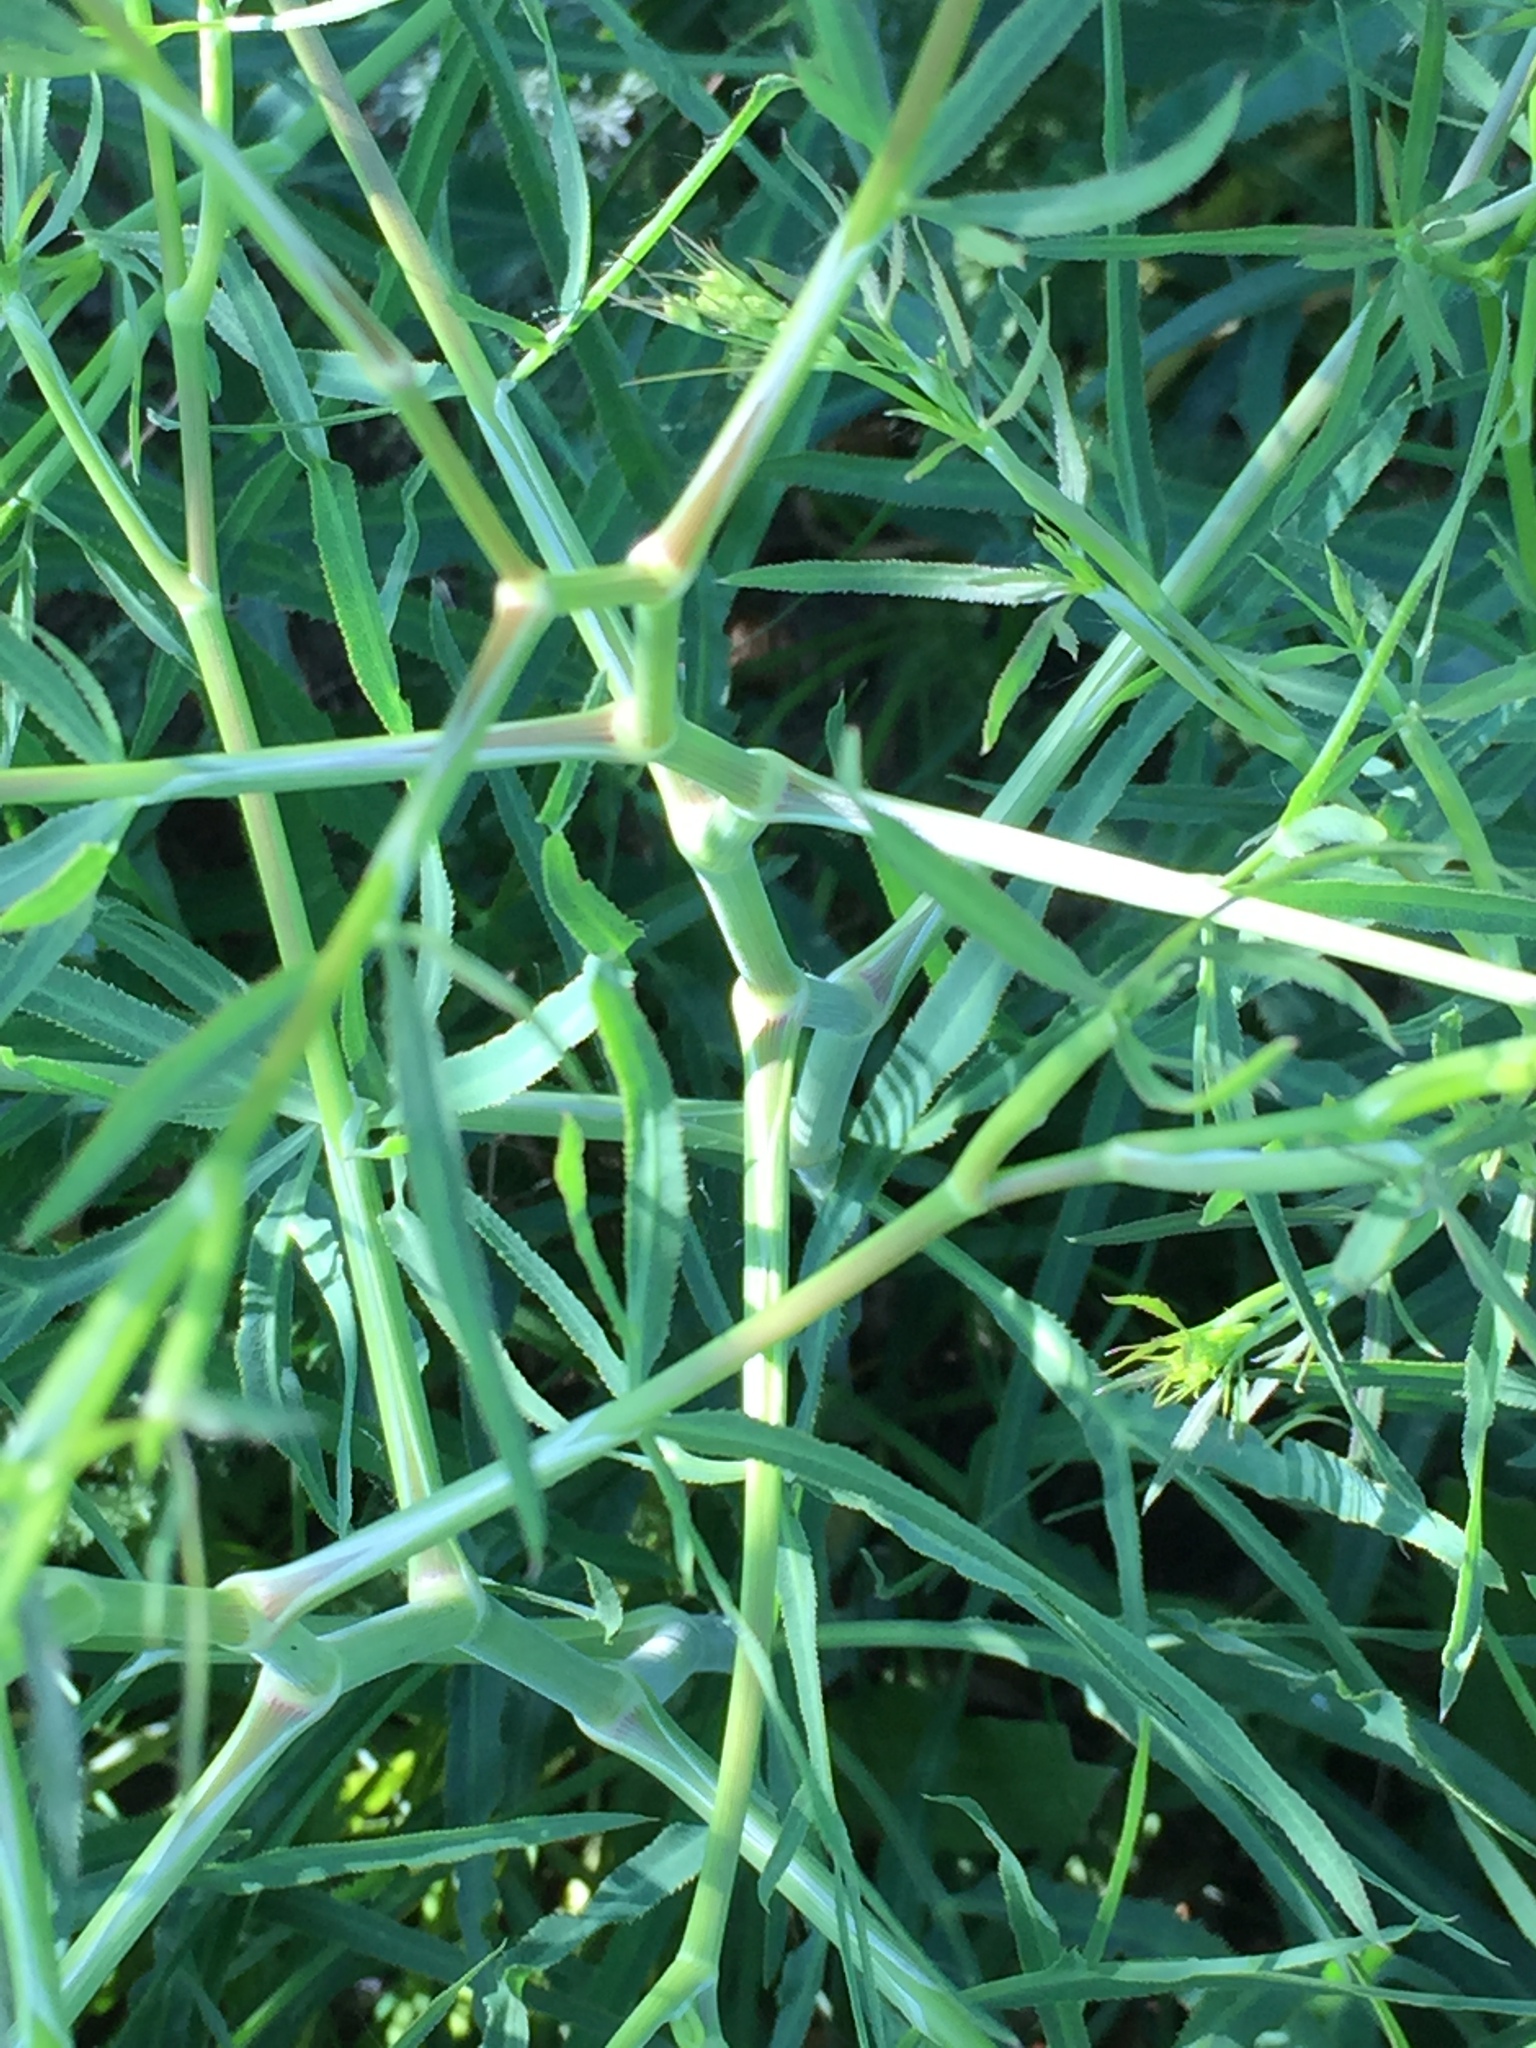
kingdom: Plantae
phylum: Tracheophyta
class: Magnoliopsida
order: Apiales
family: Apiaceae
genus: Falcaria
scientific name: Falcaria vulgaris
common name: Longleaf
